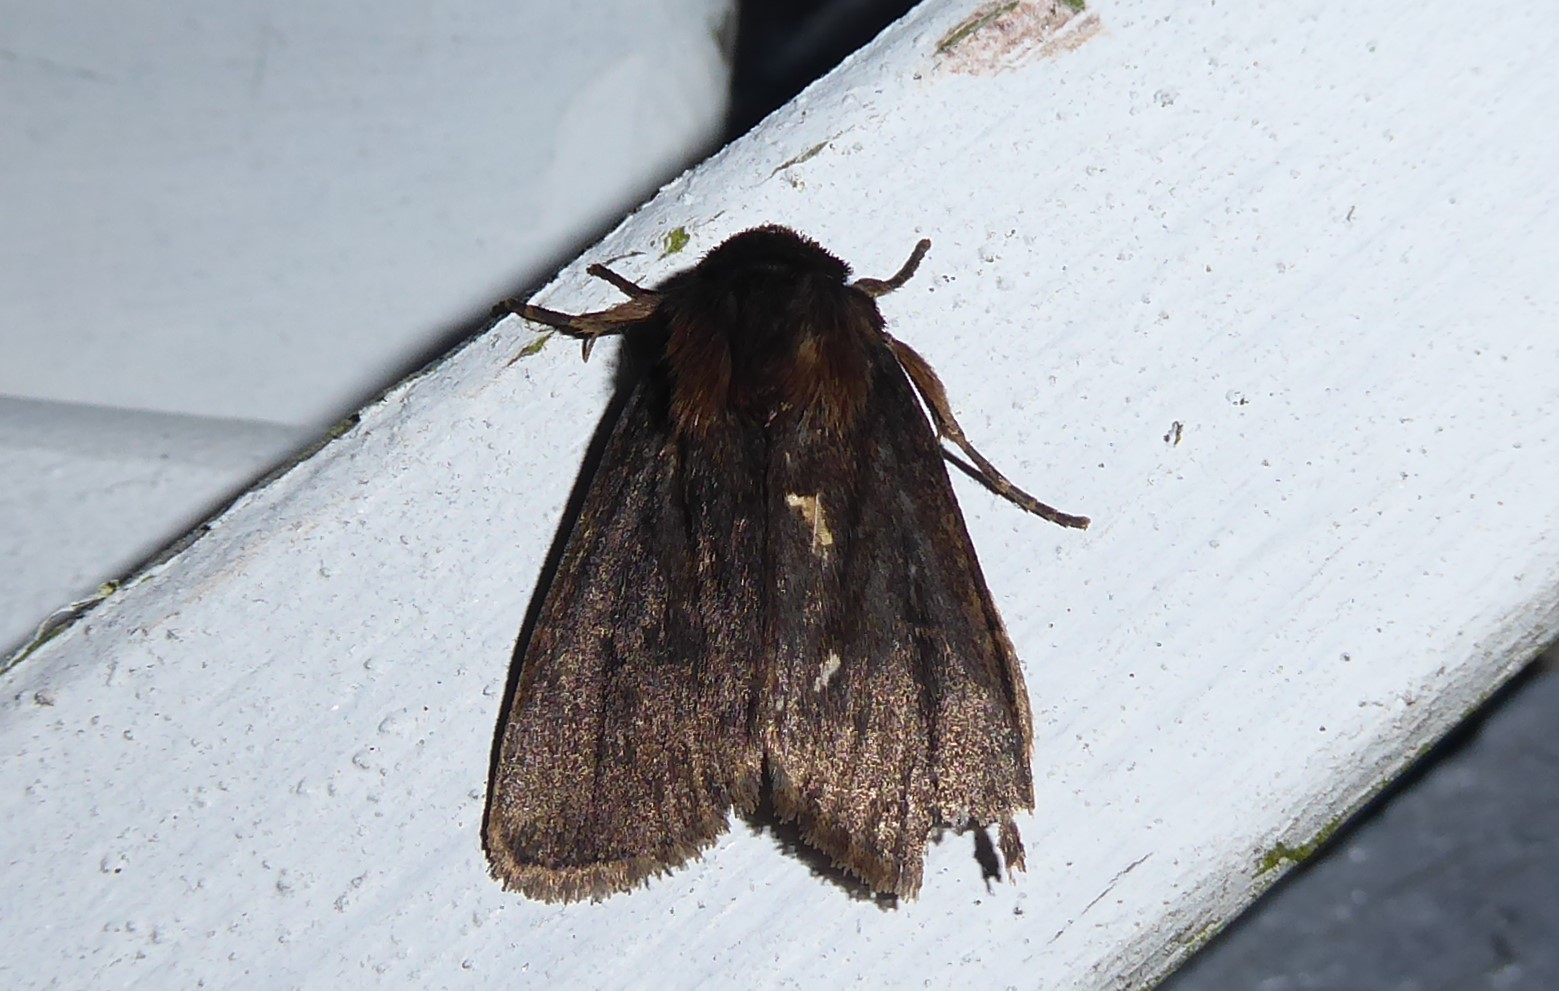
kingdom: Animalia
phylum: Arthropoda
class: Insecta
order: Lepidoptera
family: Noctuidae
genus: Bityla
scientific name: Bityla defigurata
